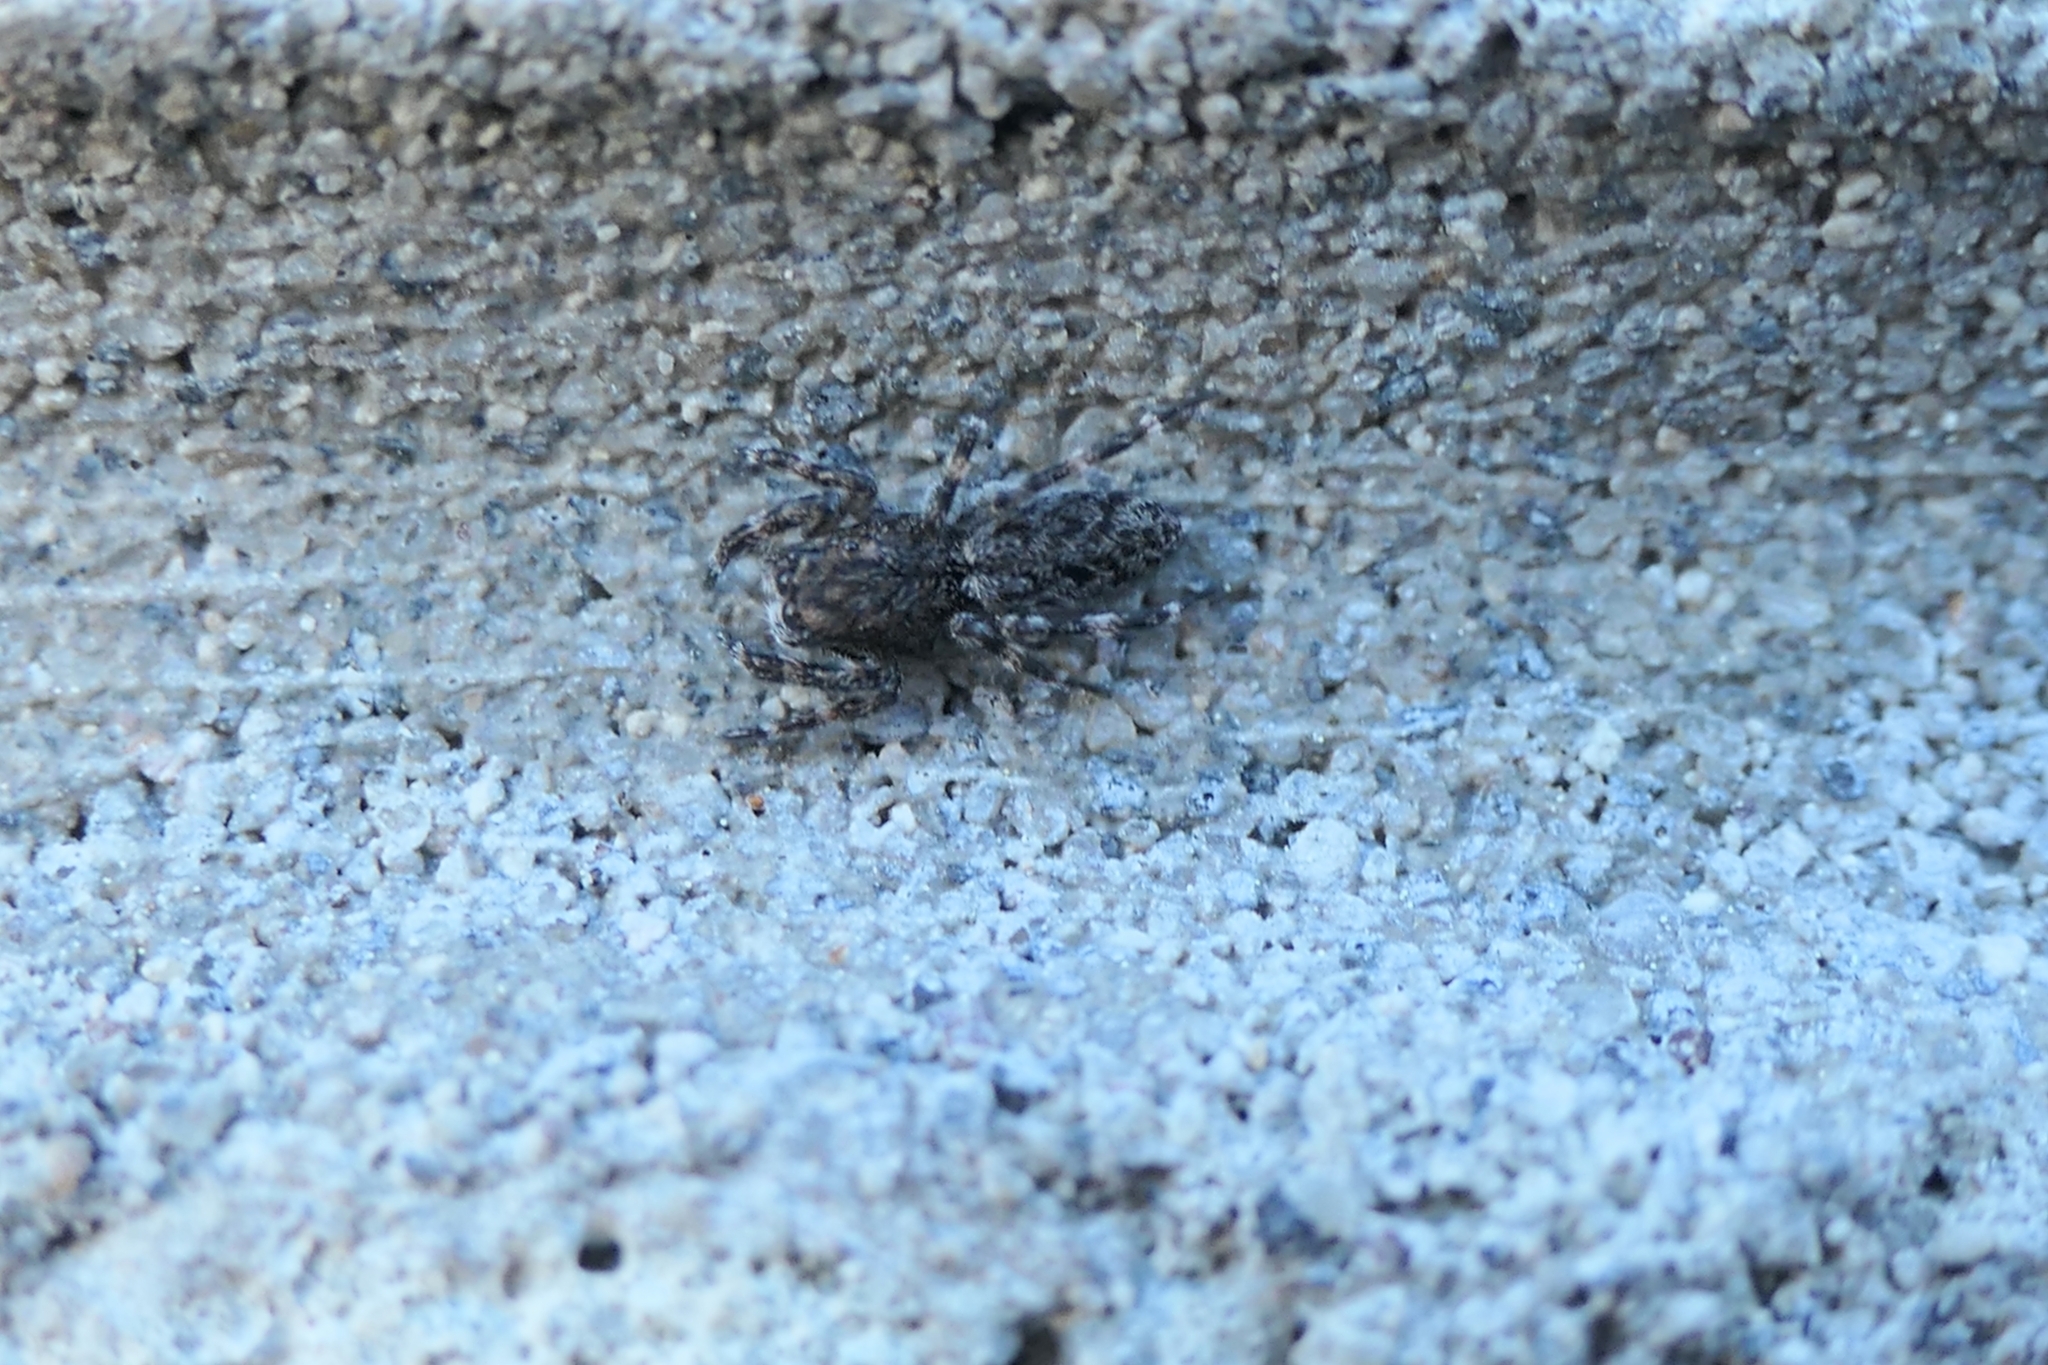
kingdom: Animalia
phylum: Arthropoda
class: Arachnida
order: Araneae
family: Salticidae
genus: Adoxotoma
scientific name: Adoxotoma forsteri
